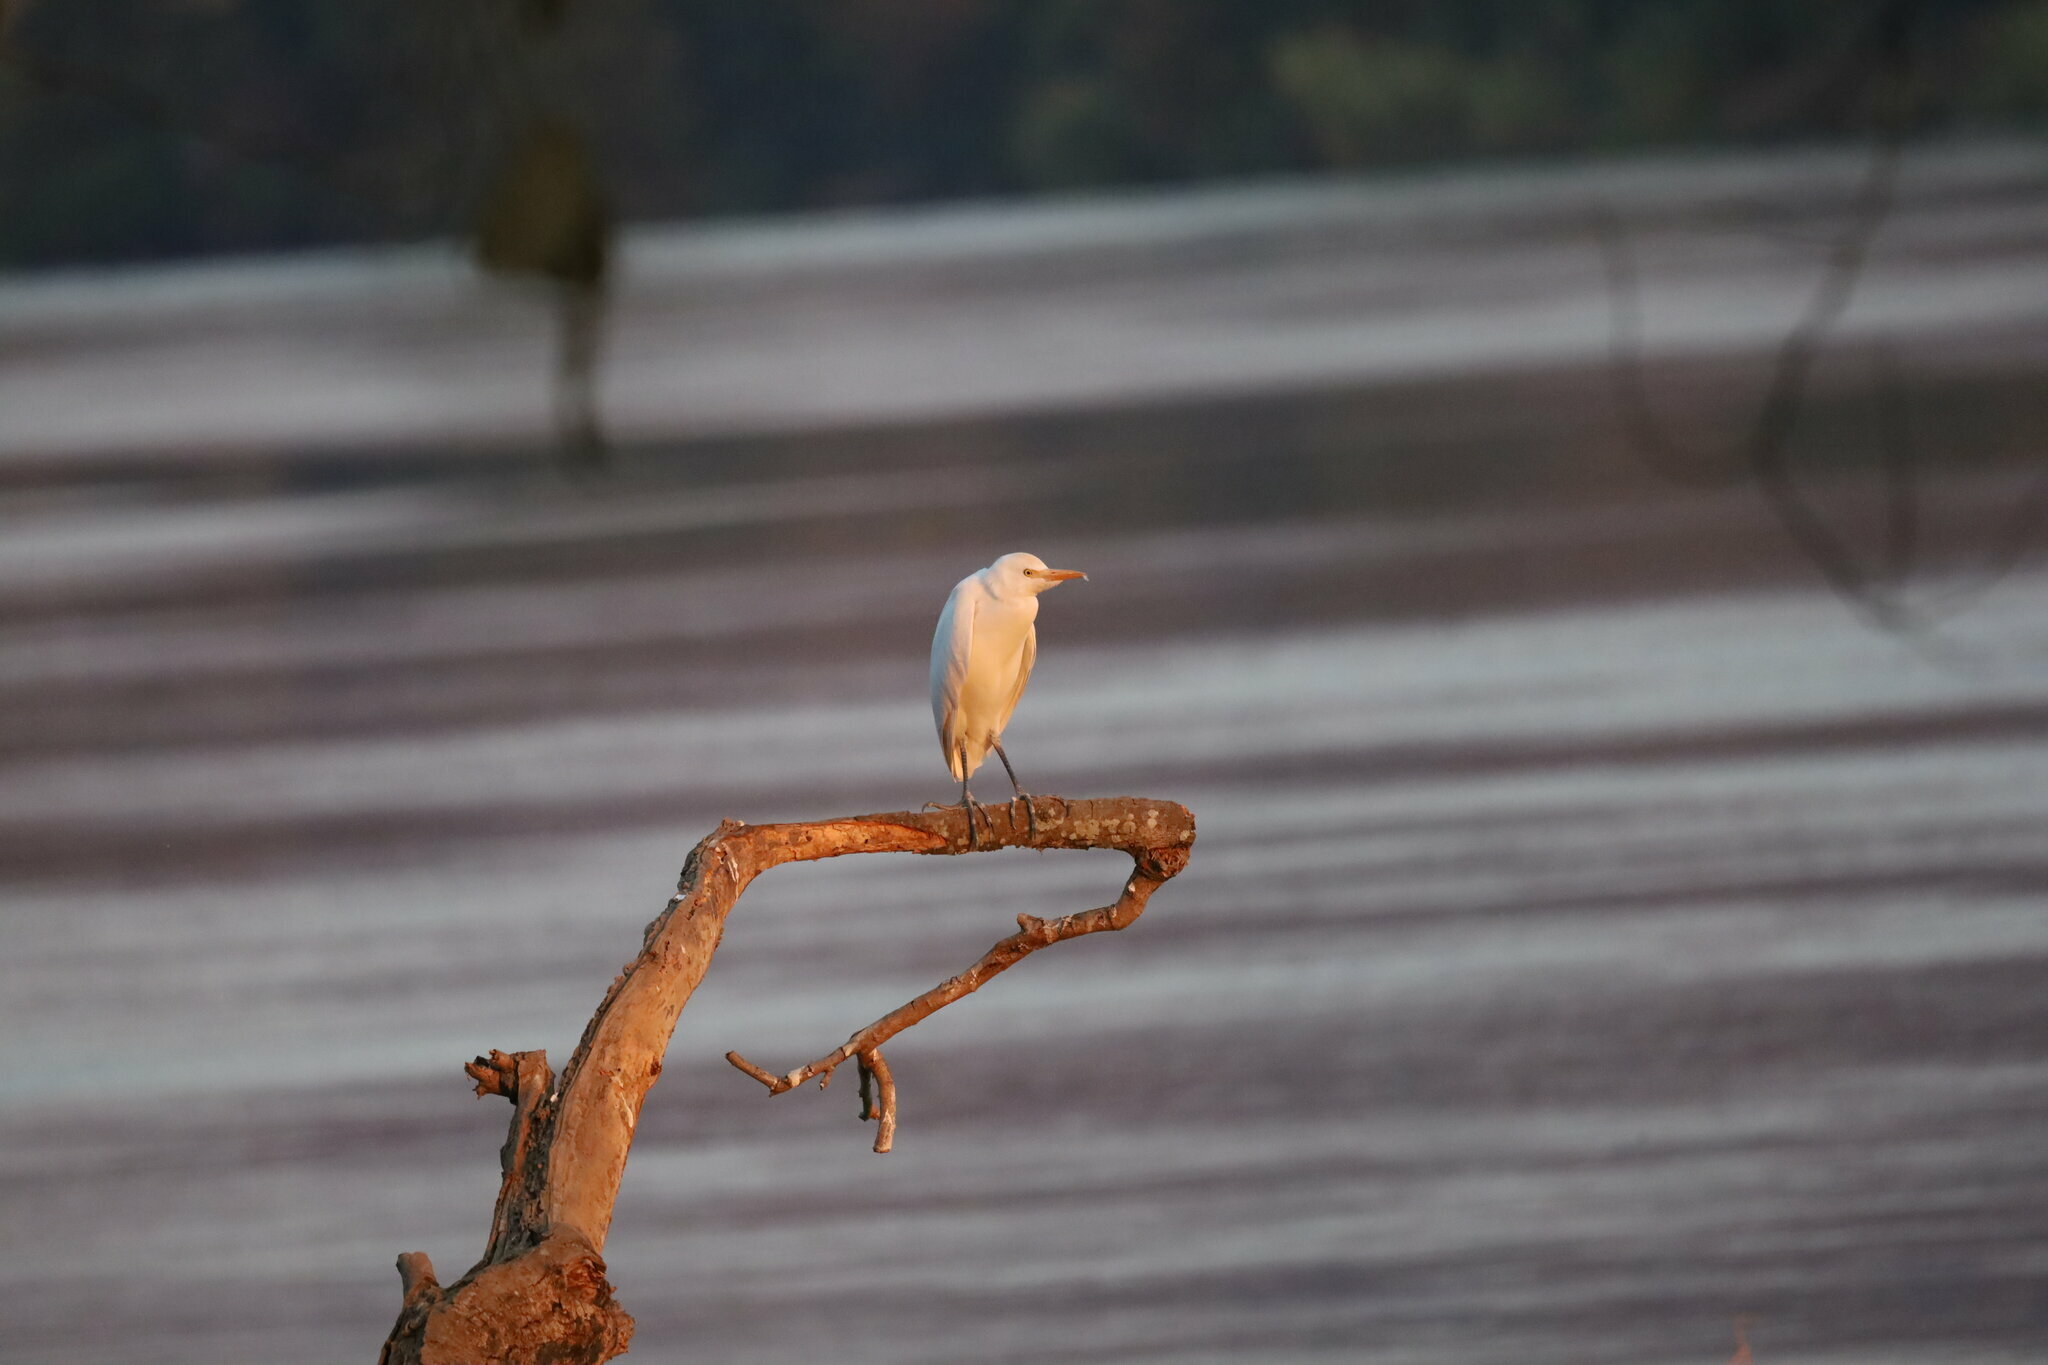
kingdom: Animalia
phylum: Chordata
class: Aves
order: Pelecaniformes
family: Ardeidae
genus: Bubulcus
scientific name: Bubulcus ibis
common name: Cattle egret
